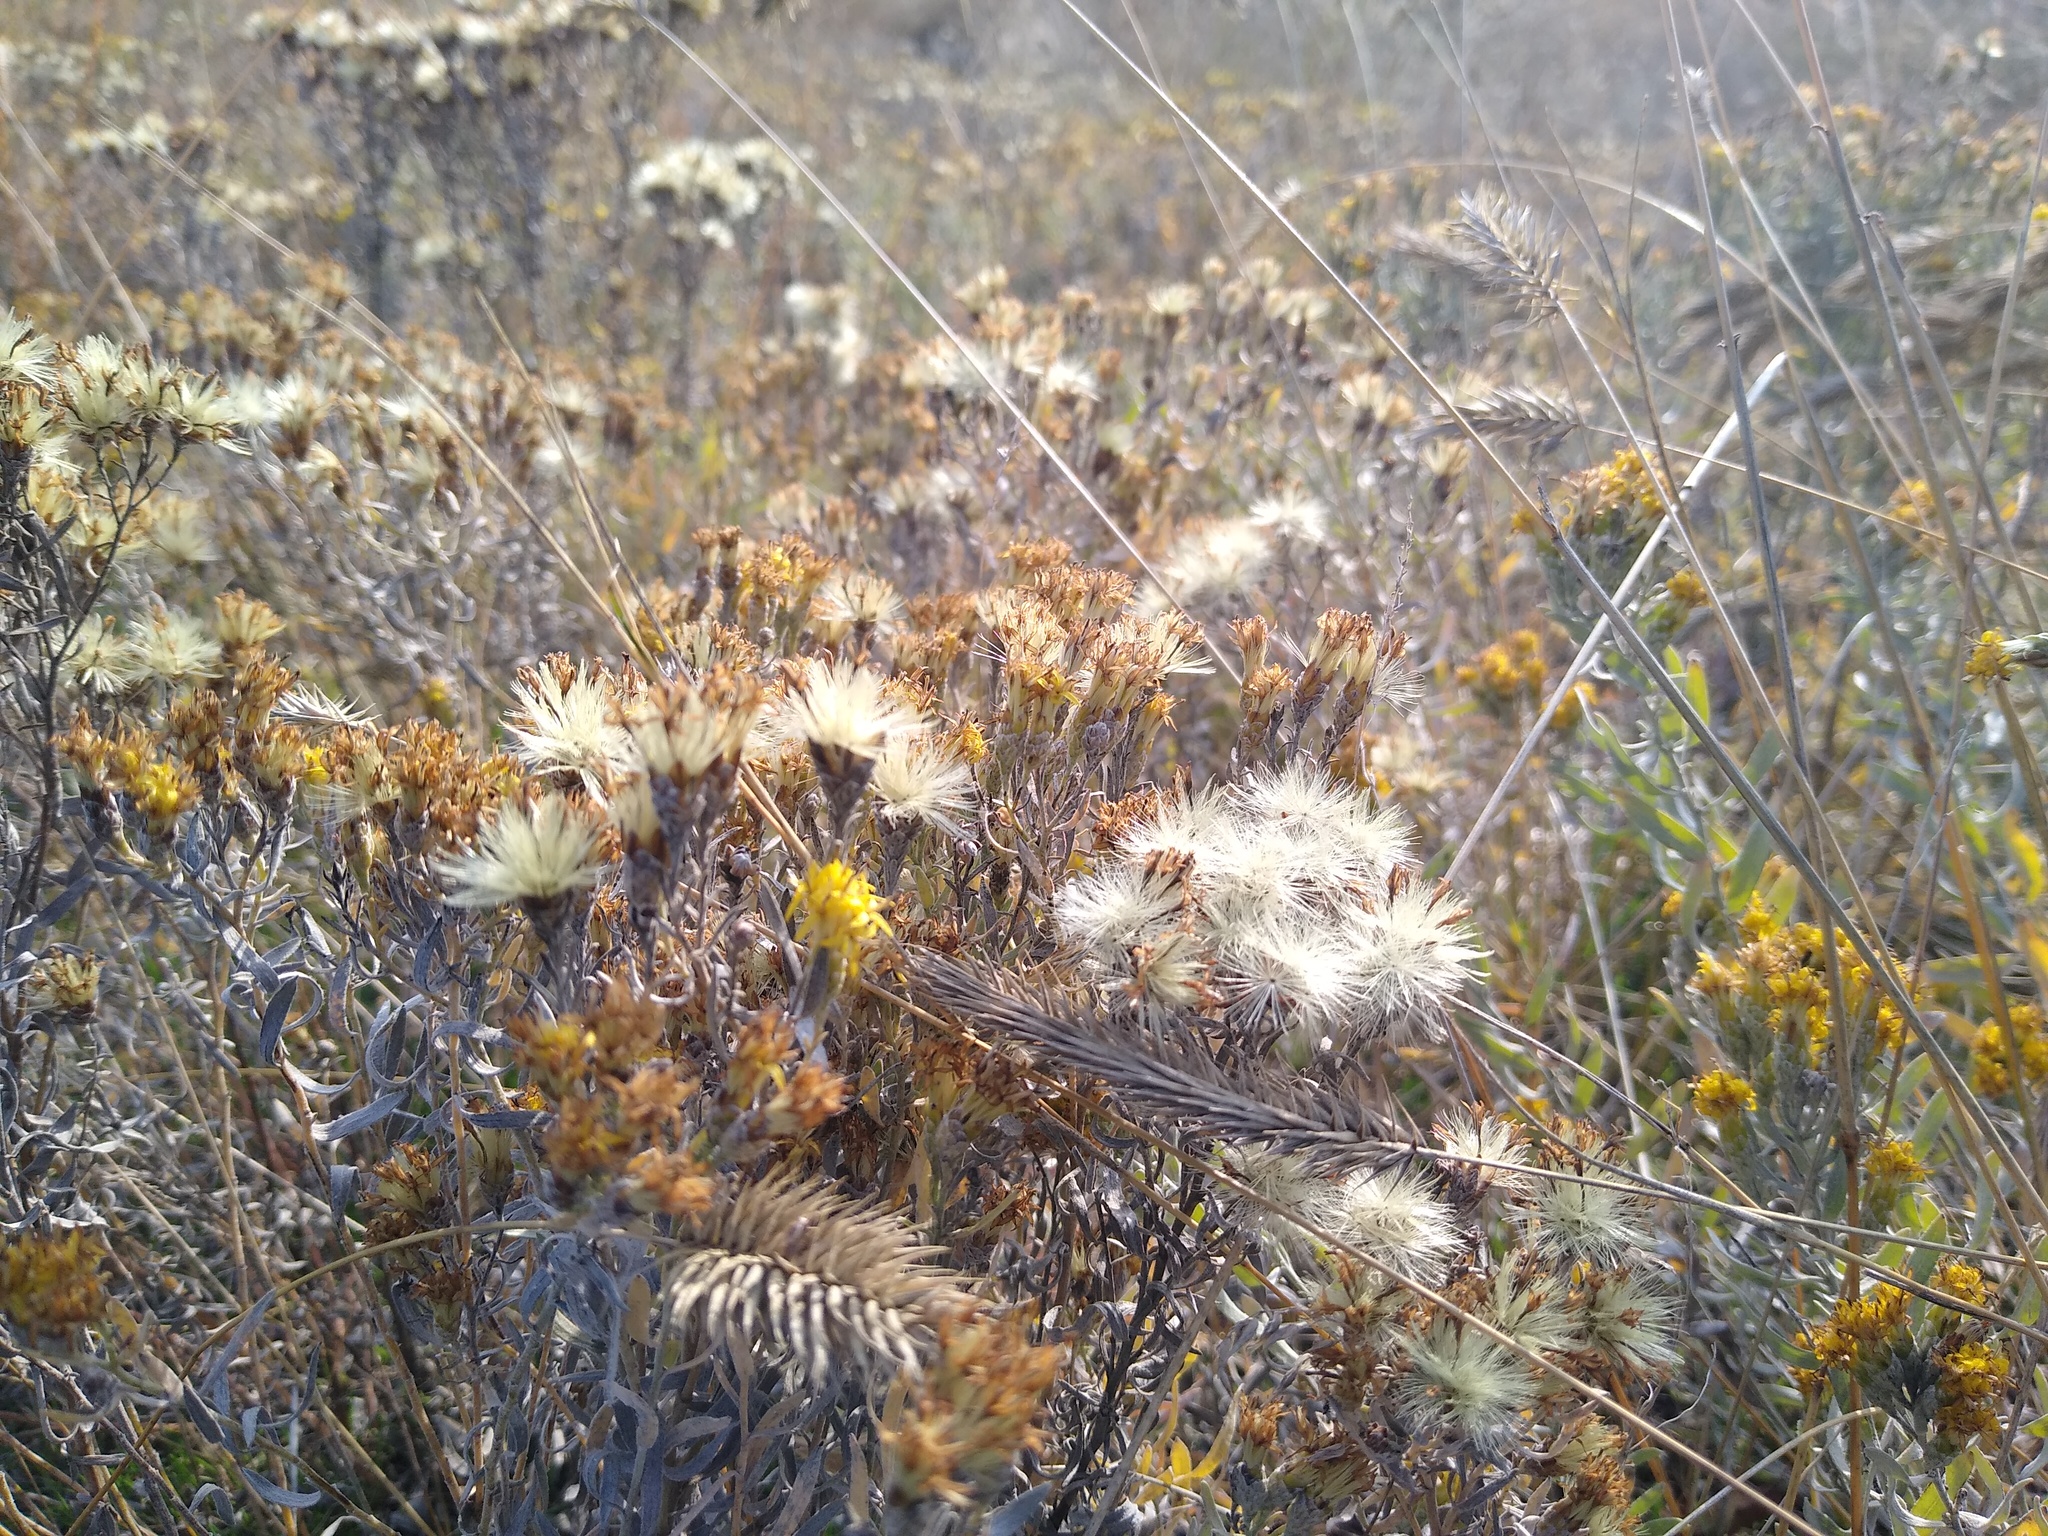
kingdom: Plantae
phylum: Tracheophyta
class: Magnoliopsida
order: Asterales
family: Asteraceae
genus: Galatella
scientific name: Galatella villosa
